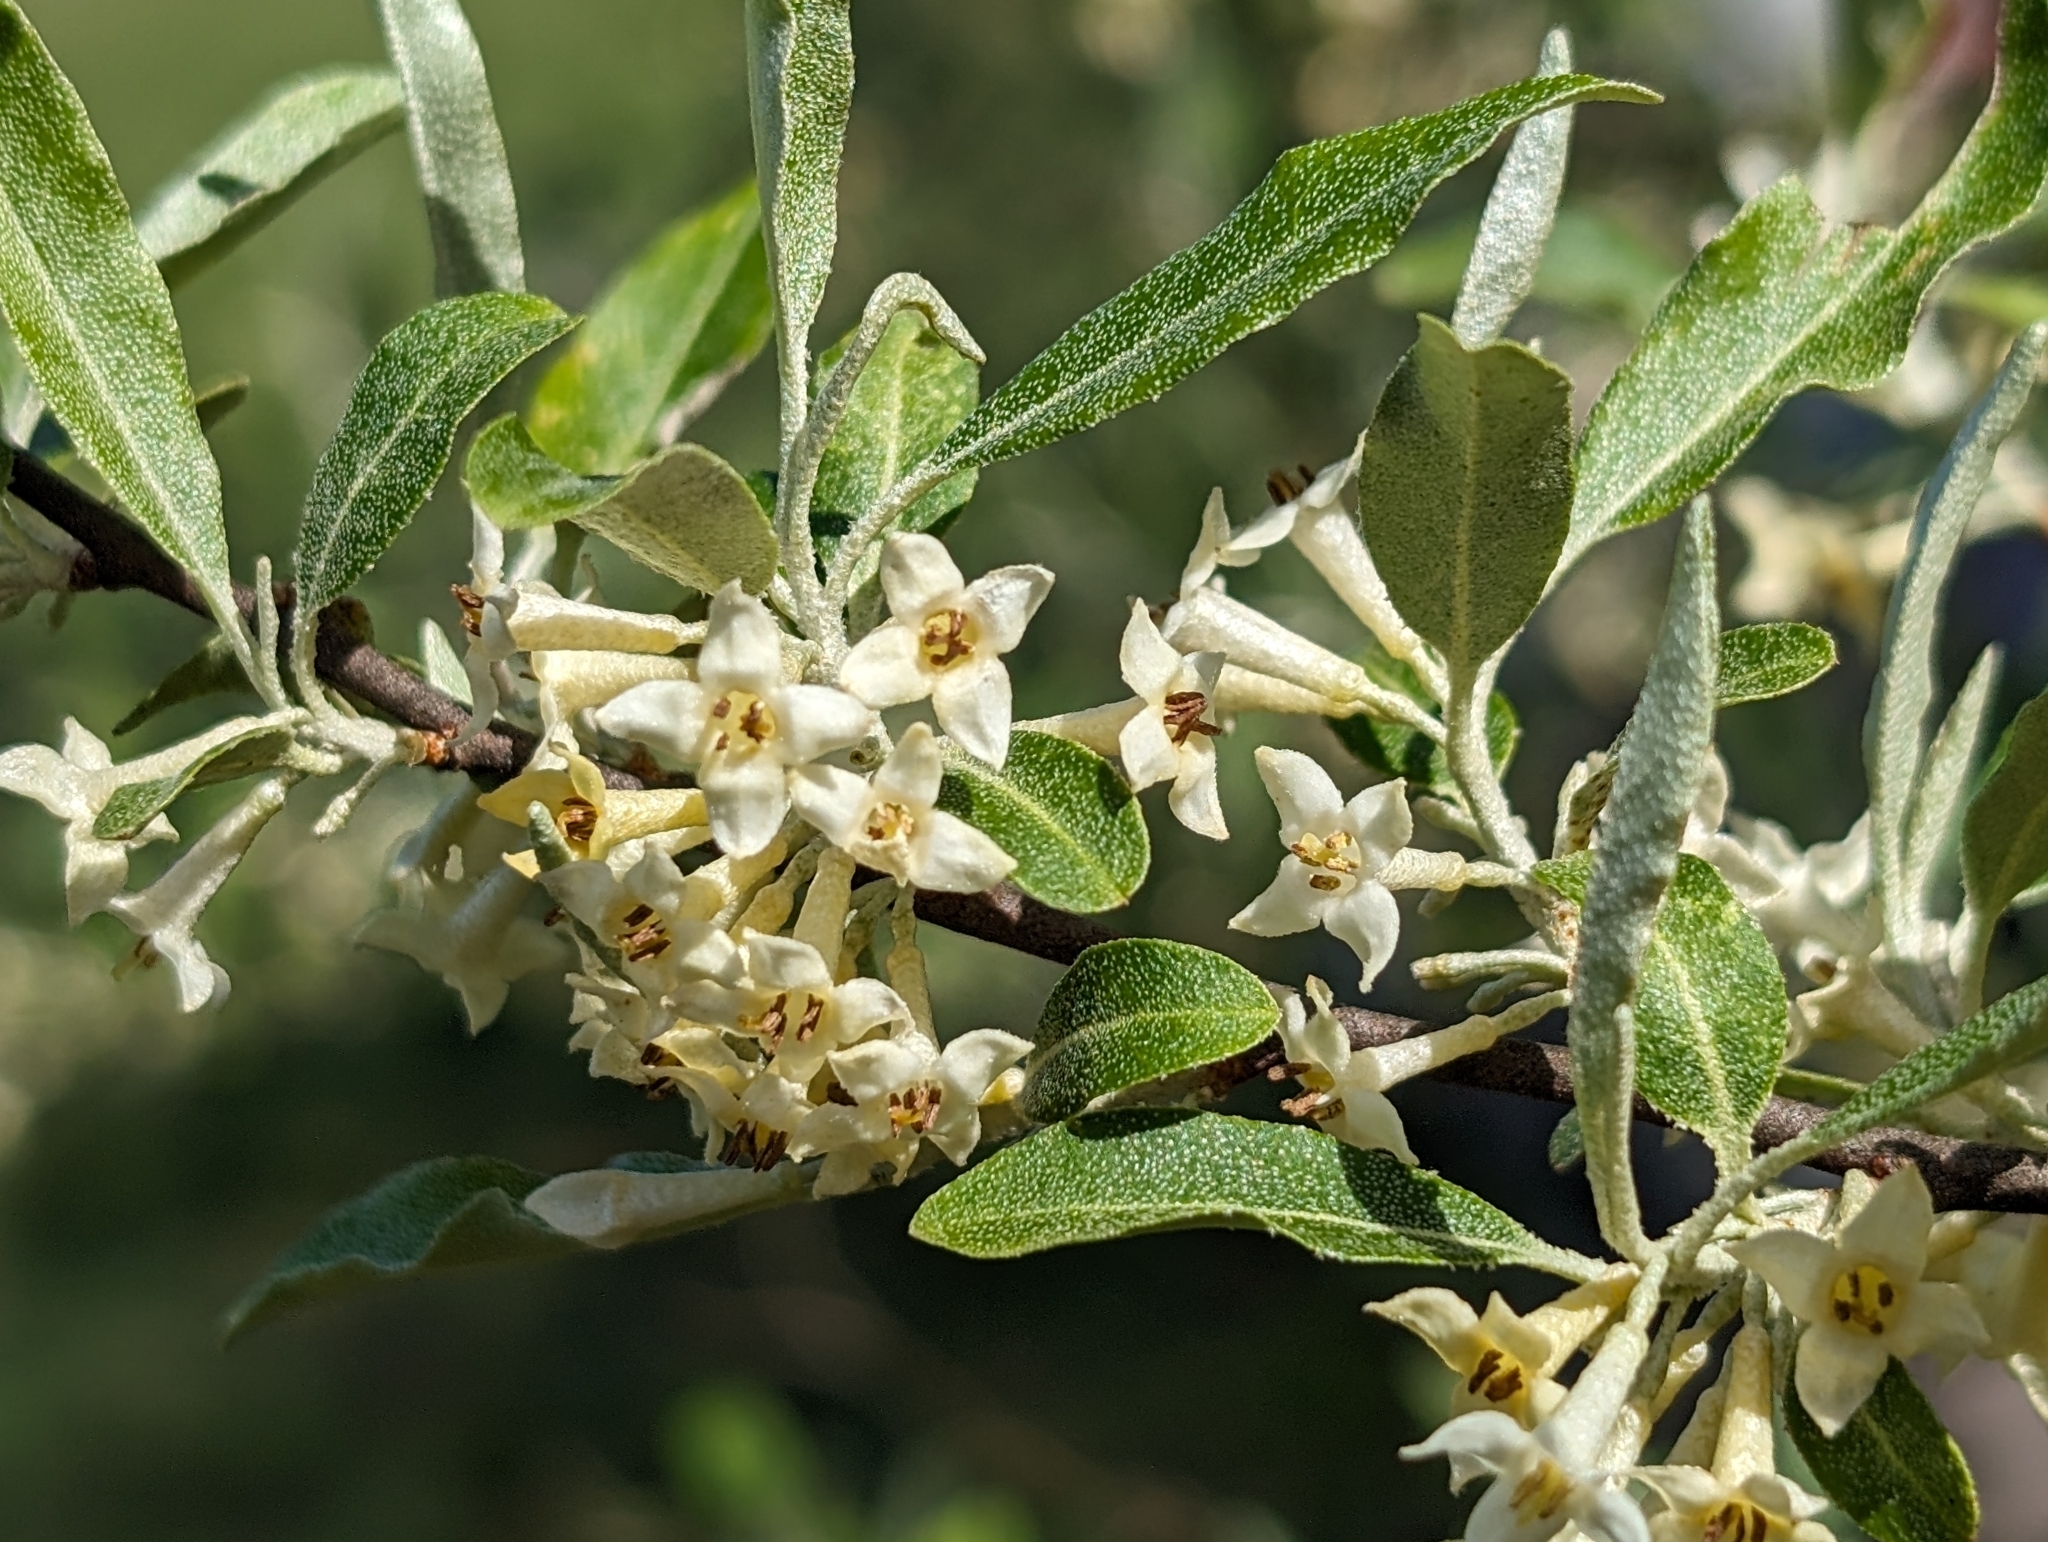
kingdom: Plantae
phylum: Tracheophyta
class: Magnoliopsida
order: Rosales
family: Elaeagnaceae
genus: Elaeagnus
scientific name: Elaeagnus umbellata
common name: Autumn olive
